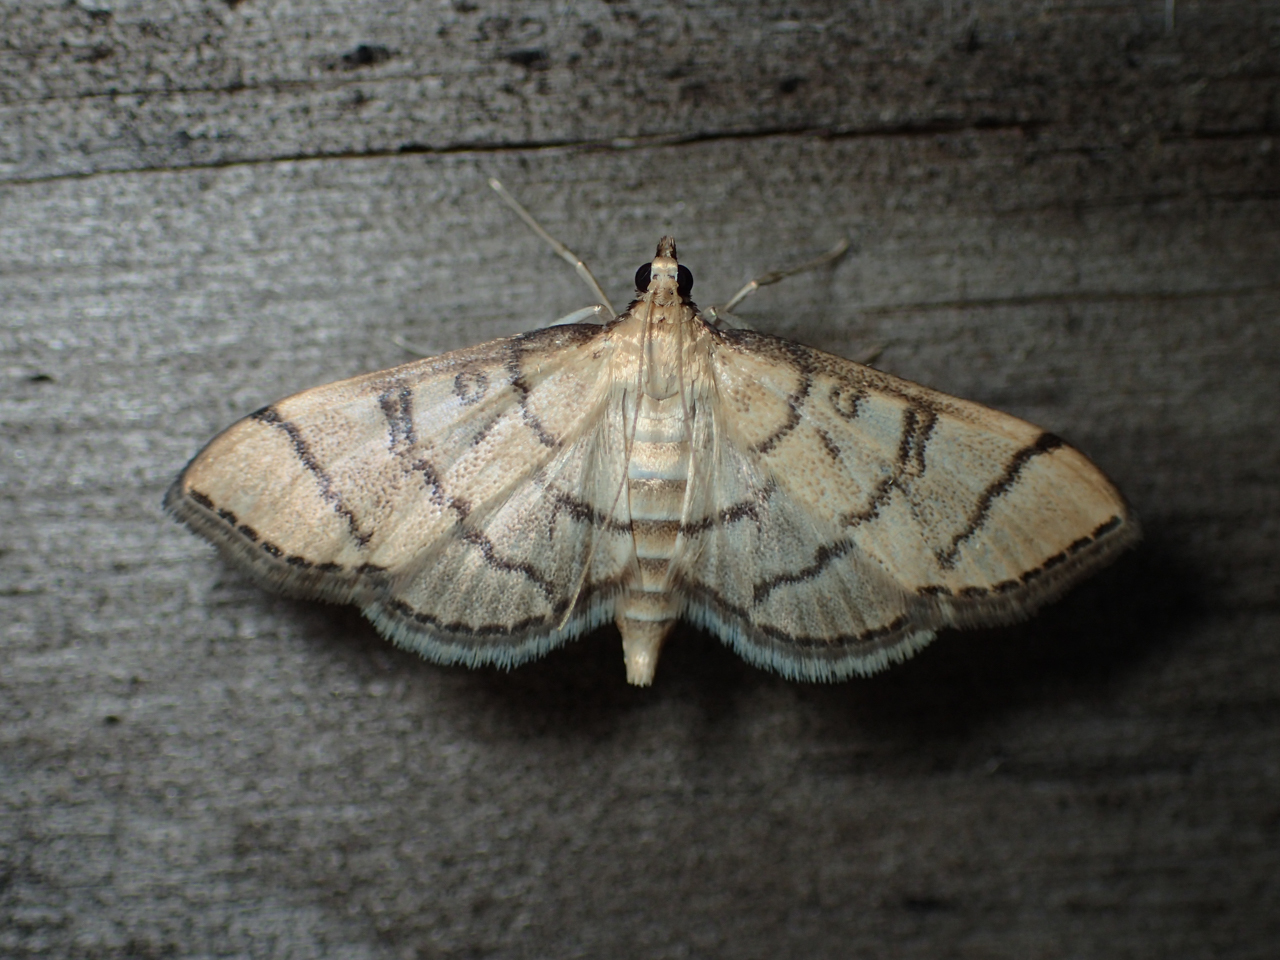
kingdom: Animalia
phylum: Arthropoda
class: Insecta
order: Lepidoptera
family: Crambidae
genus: Lamprosema
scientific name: Lamprosema Blepharomastix ranalis
